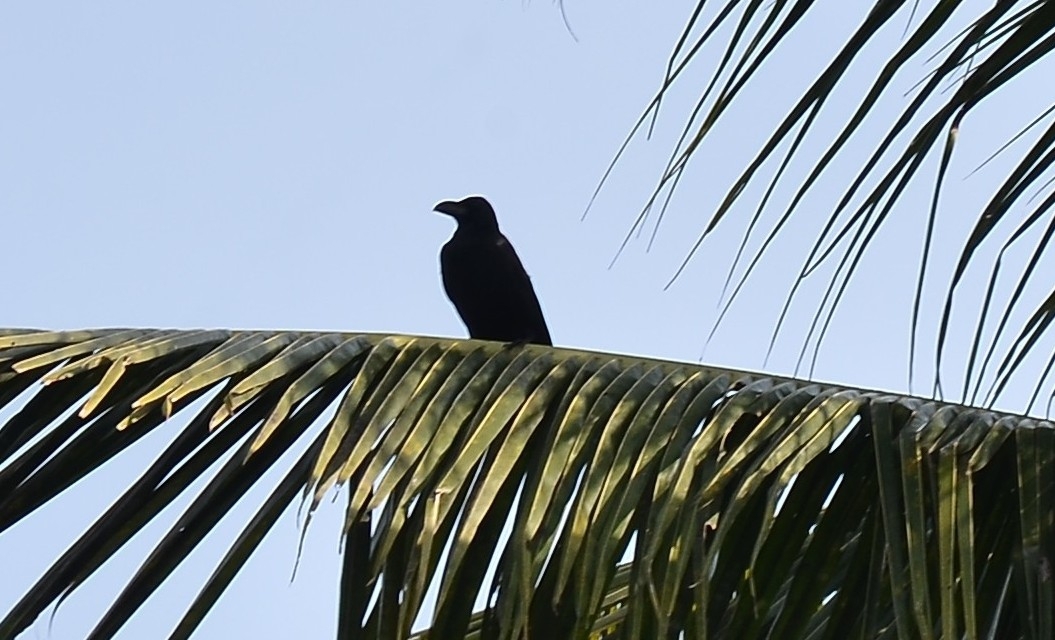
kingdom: Animalia
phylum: Chordata
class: Aves
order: Passeriformes
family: Corvidae
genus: Corvus
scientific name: Corvus macrorhynchos
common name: Large-billed crow
